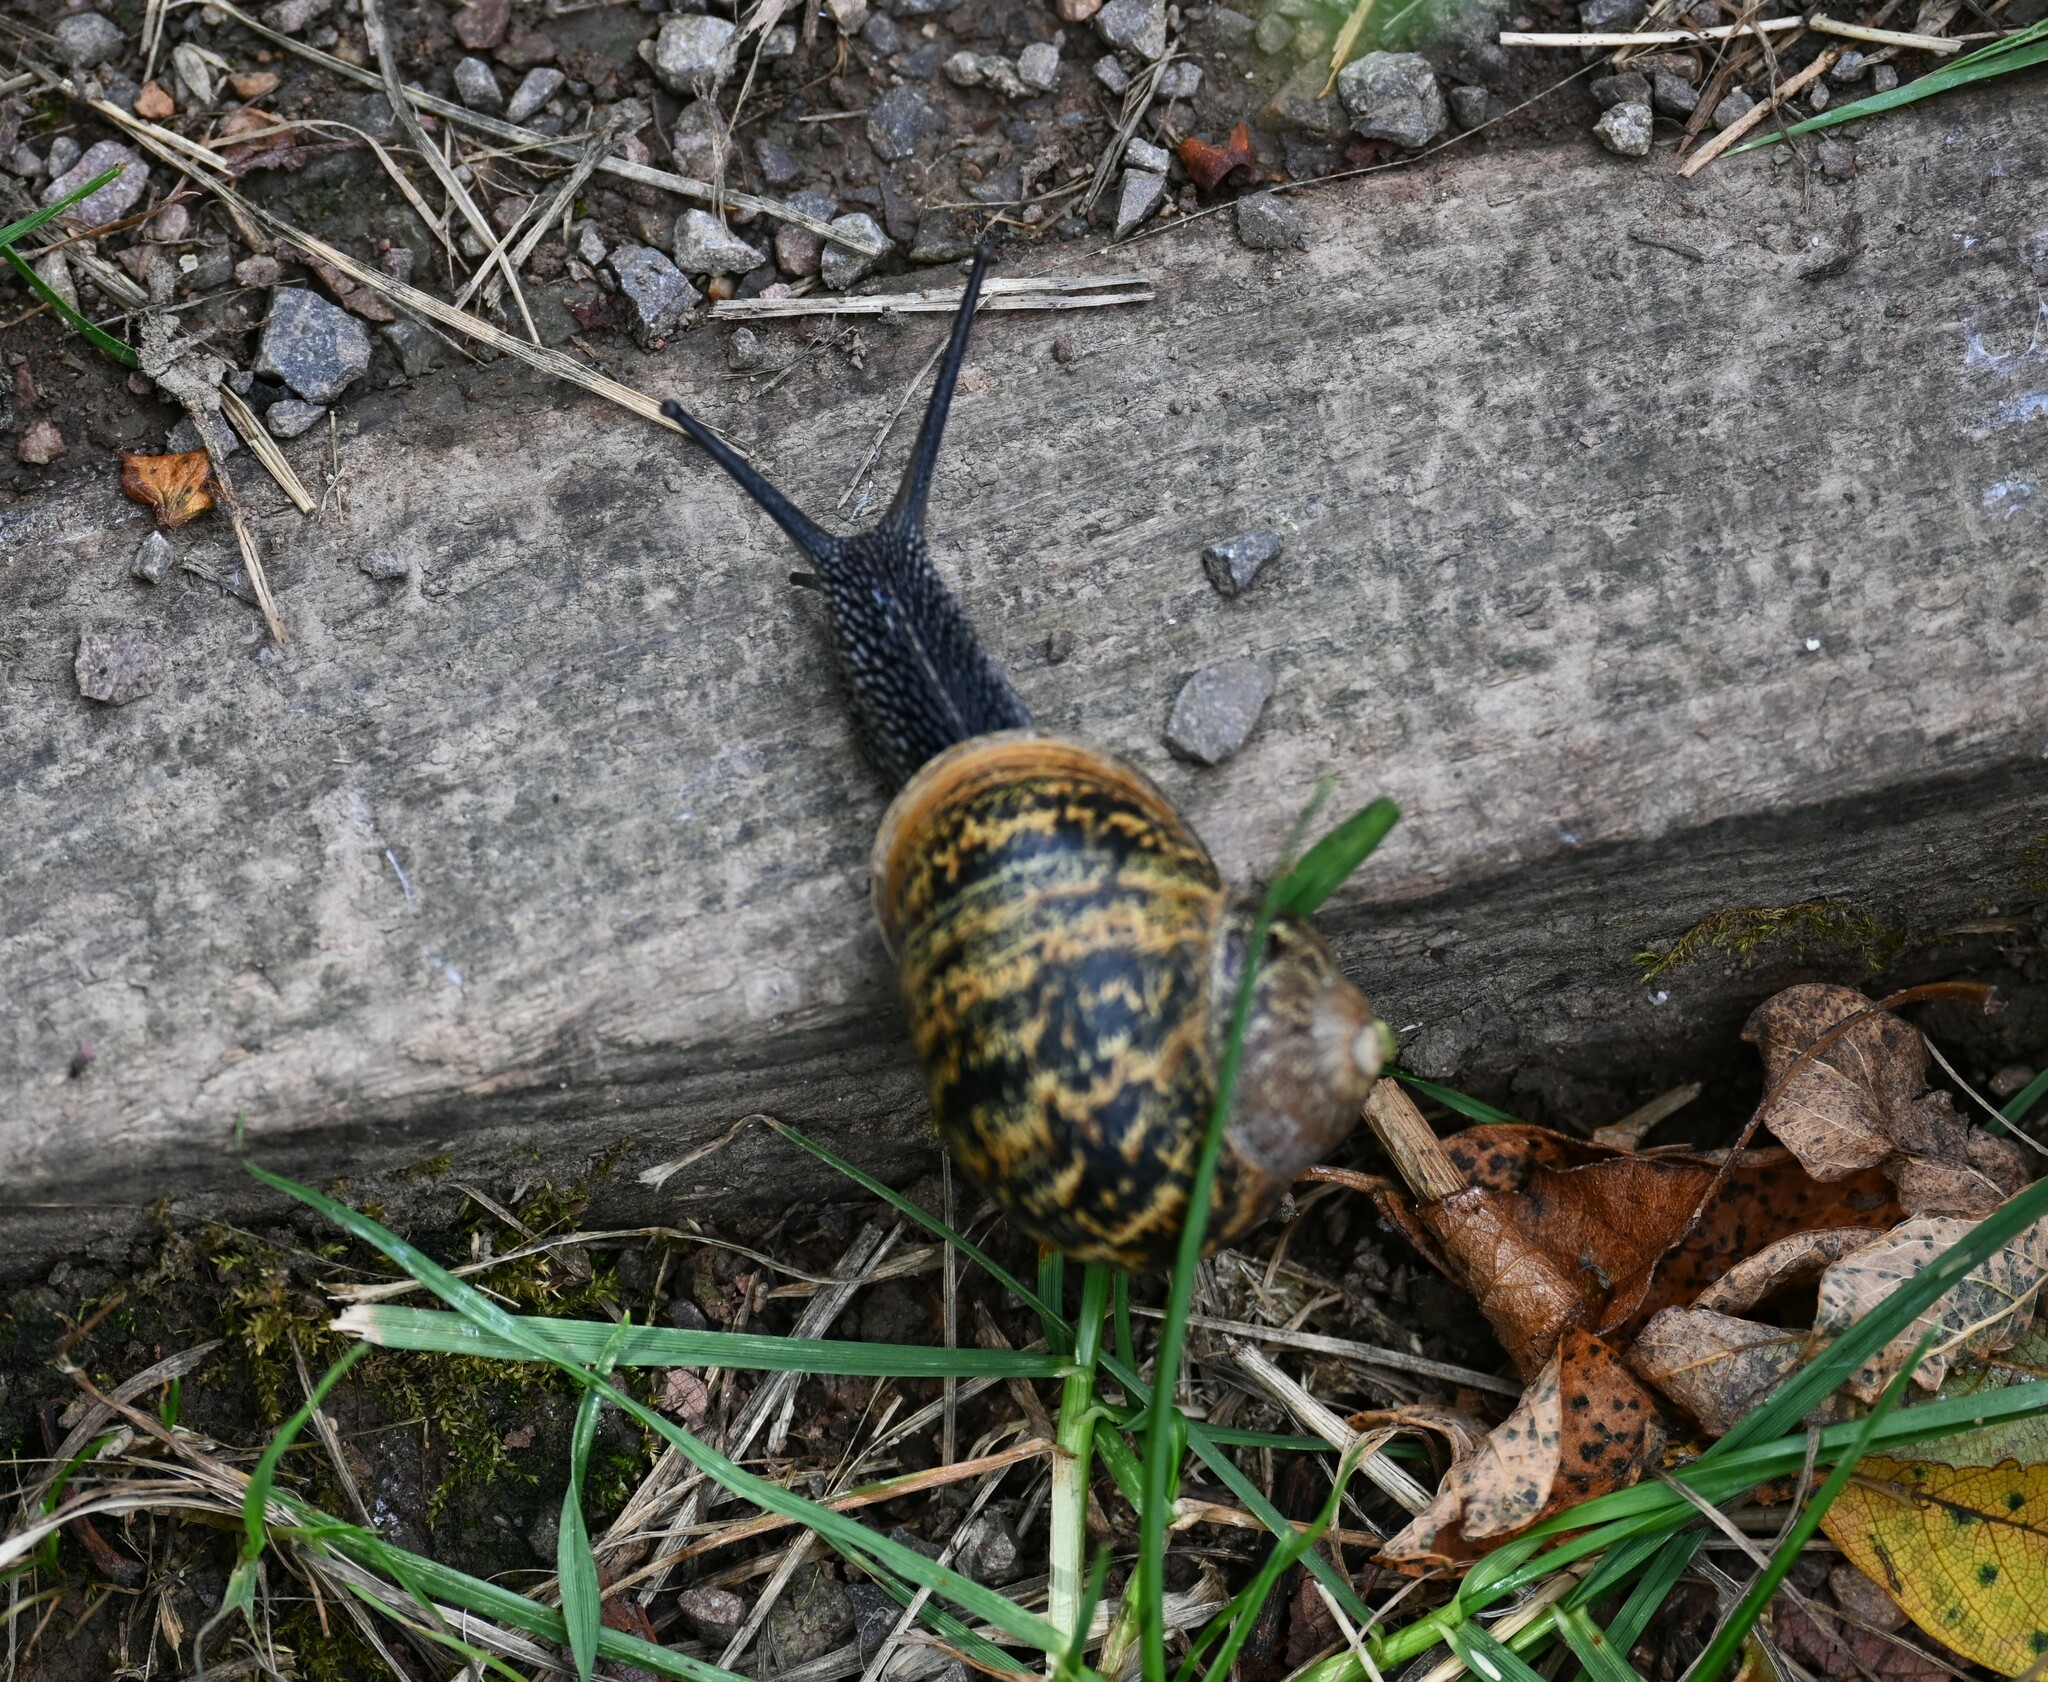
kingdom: Animalia
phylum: Mollusca
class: Gastropoda
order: Stylommatophora
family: Helicidae
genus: Cornu
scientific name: Cornu aspersum
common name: Brown garden snail
